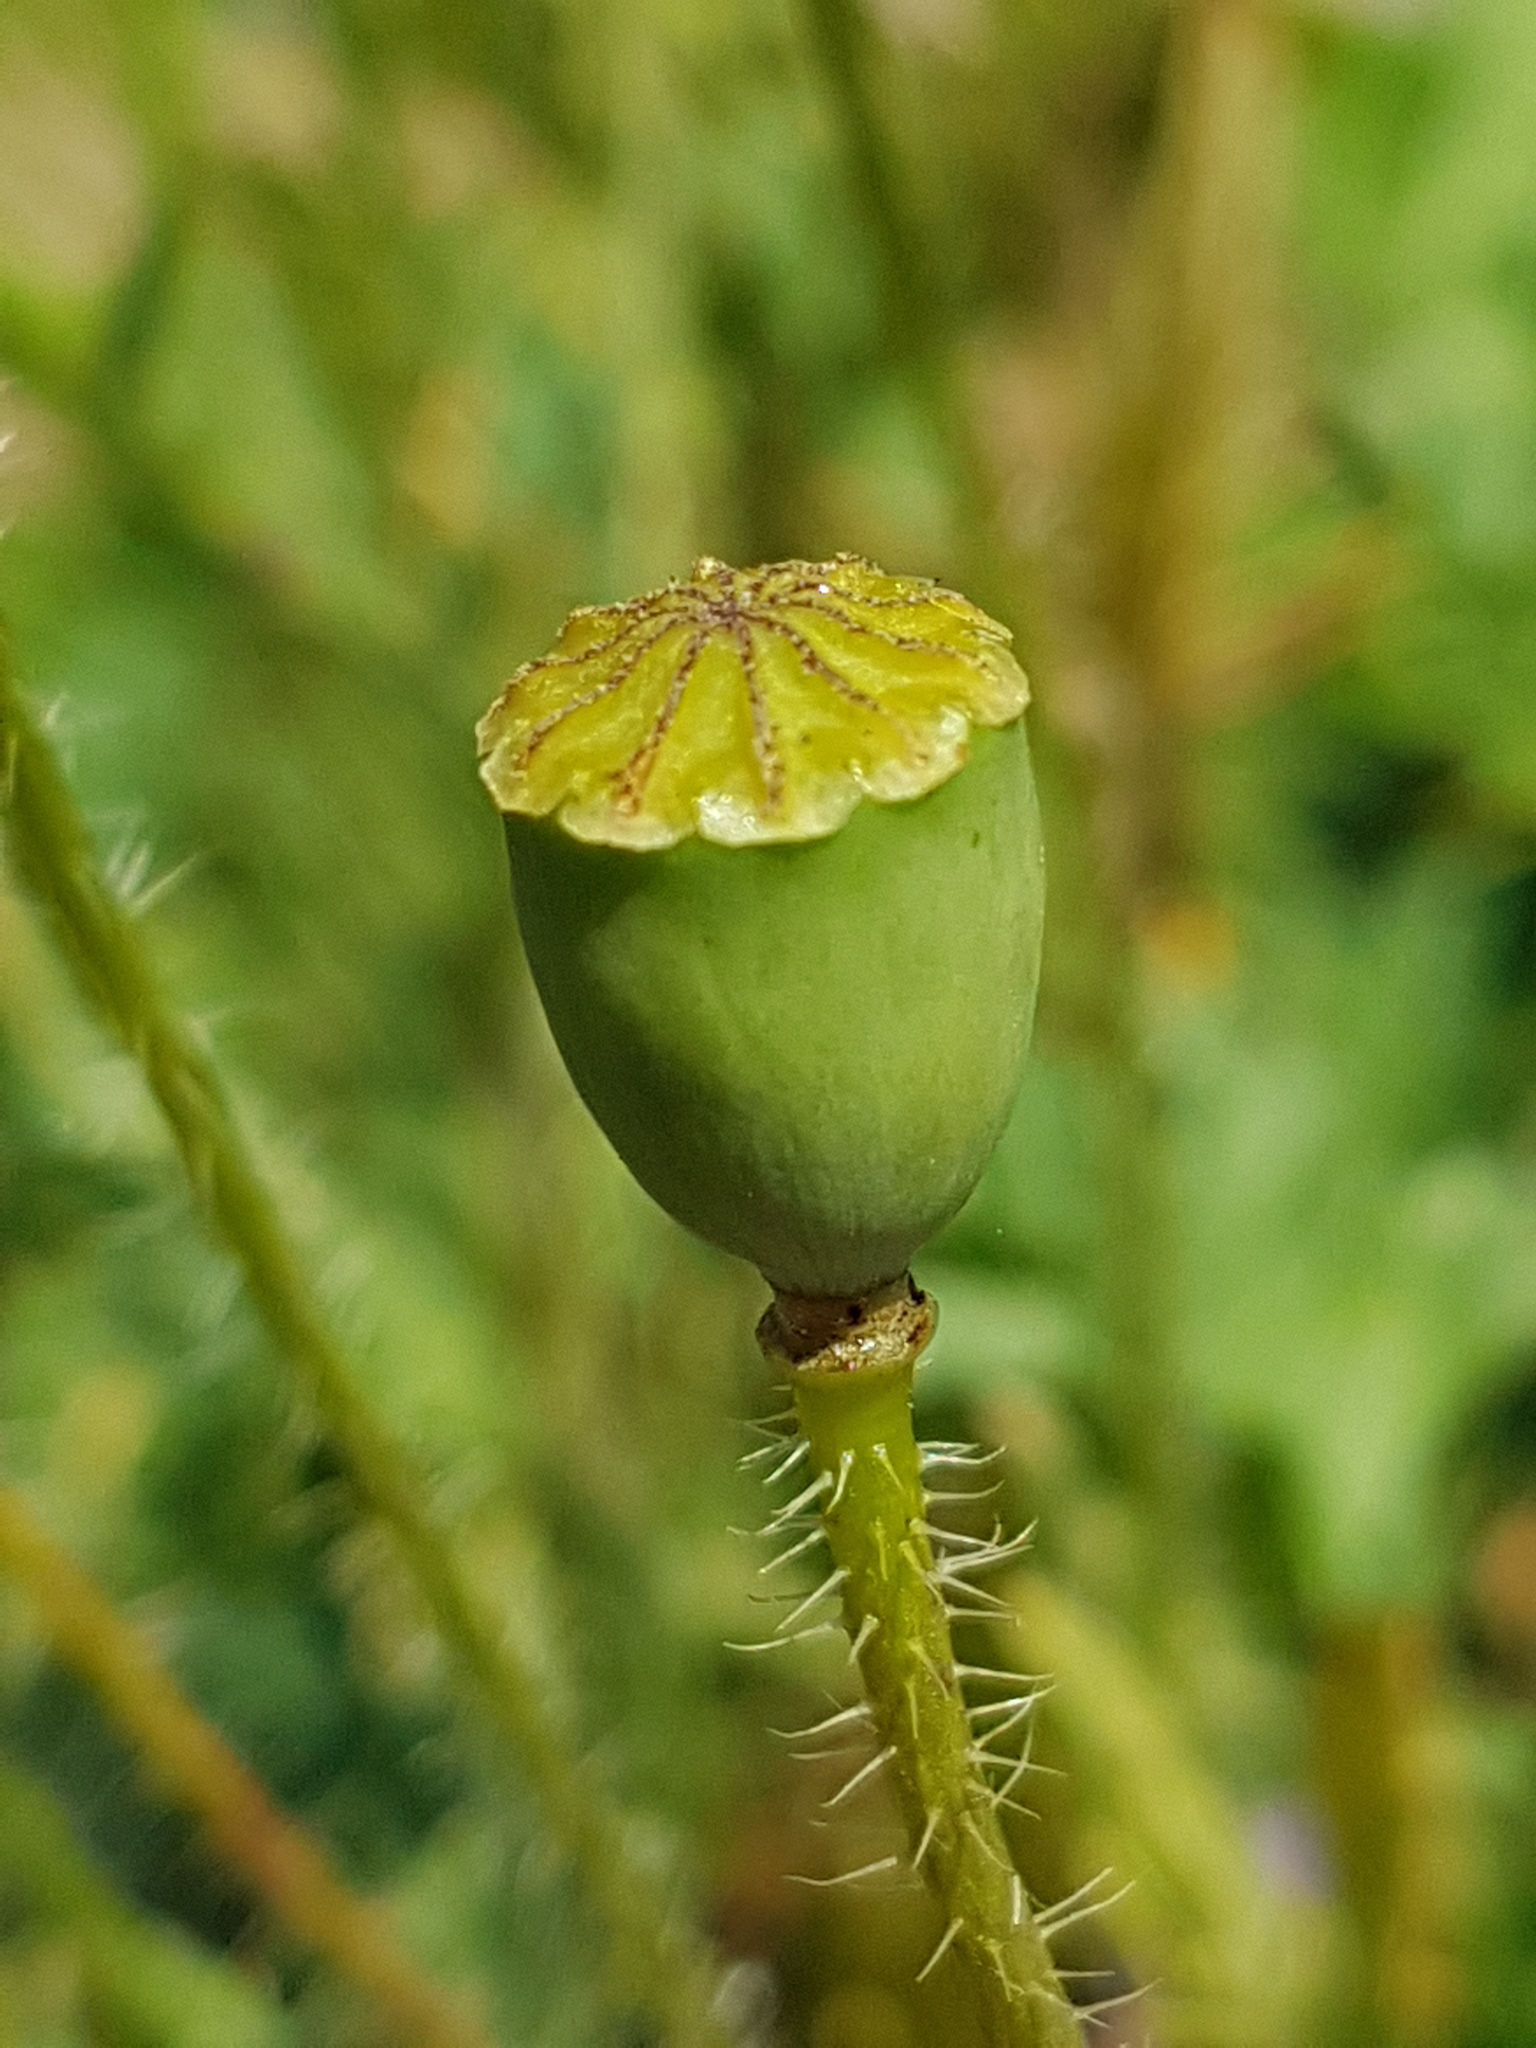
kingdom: Plantae
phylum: Tracheophyta
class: Magnoliopsida
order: Ranunculales
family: Papaveraceae
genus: Papaver
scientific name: Papaver rhoeas
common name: Corn poppy
